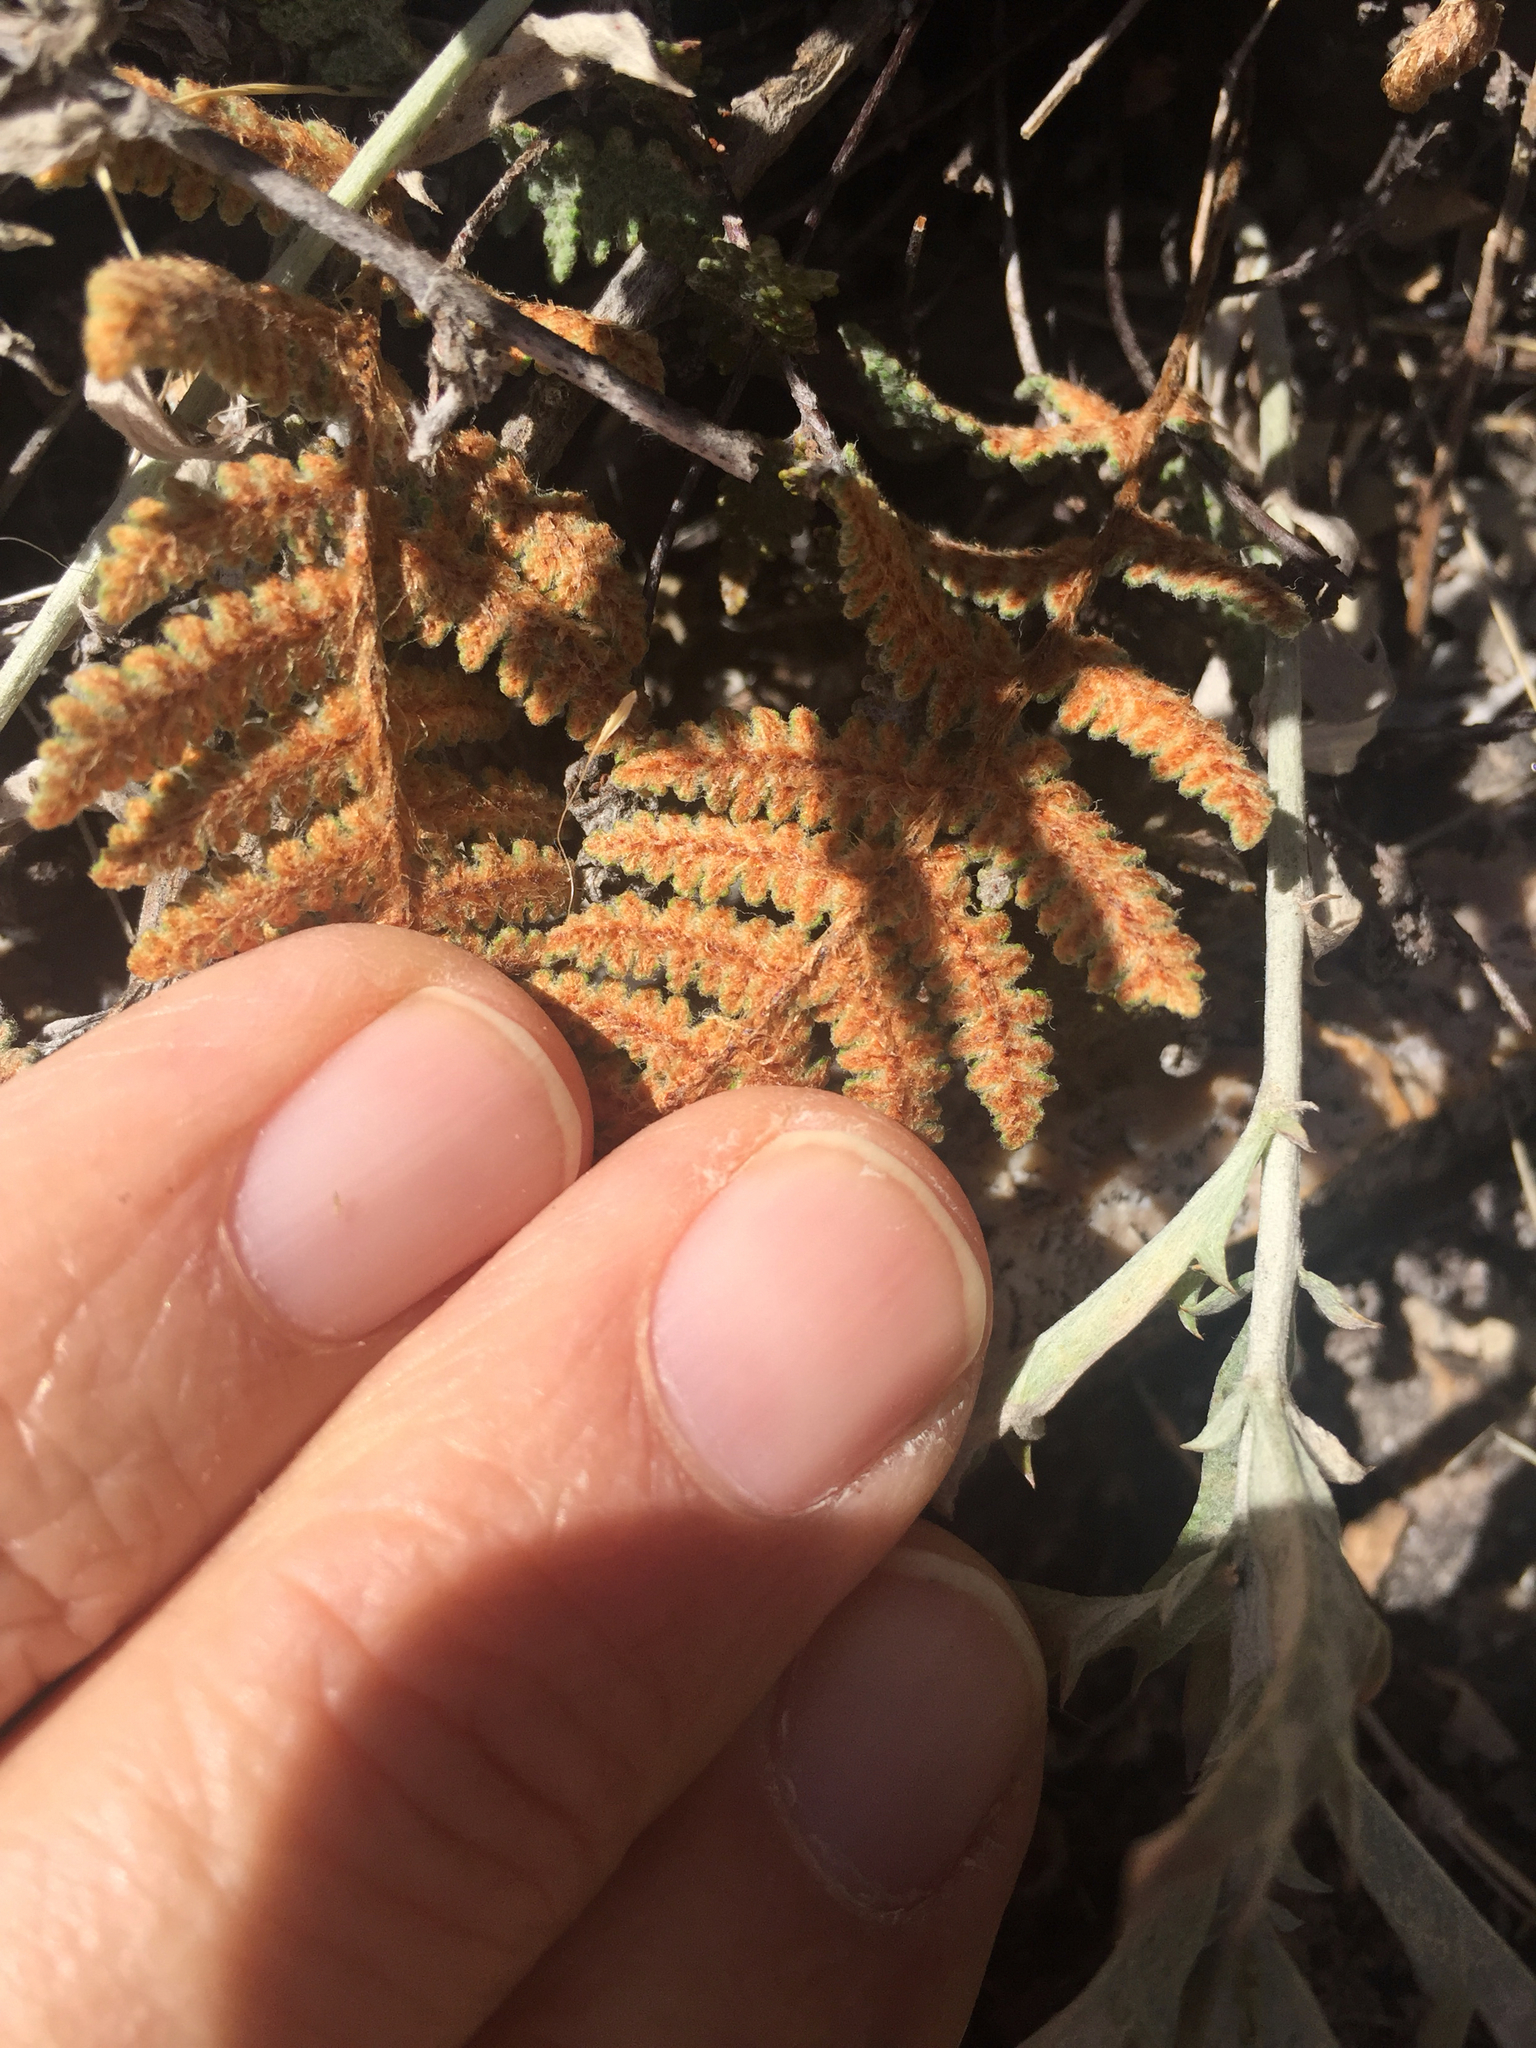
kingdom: Plantae
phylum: Tracheophyta
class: Polypodiopsida
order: Polypodiales
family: Pteridaceae
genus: Myriopteris
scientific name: Myriopteris lindheimeri
